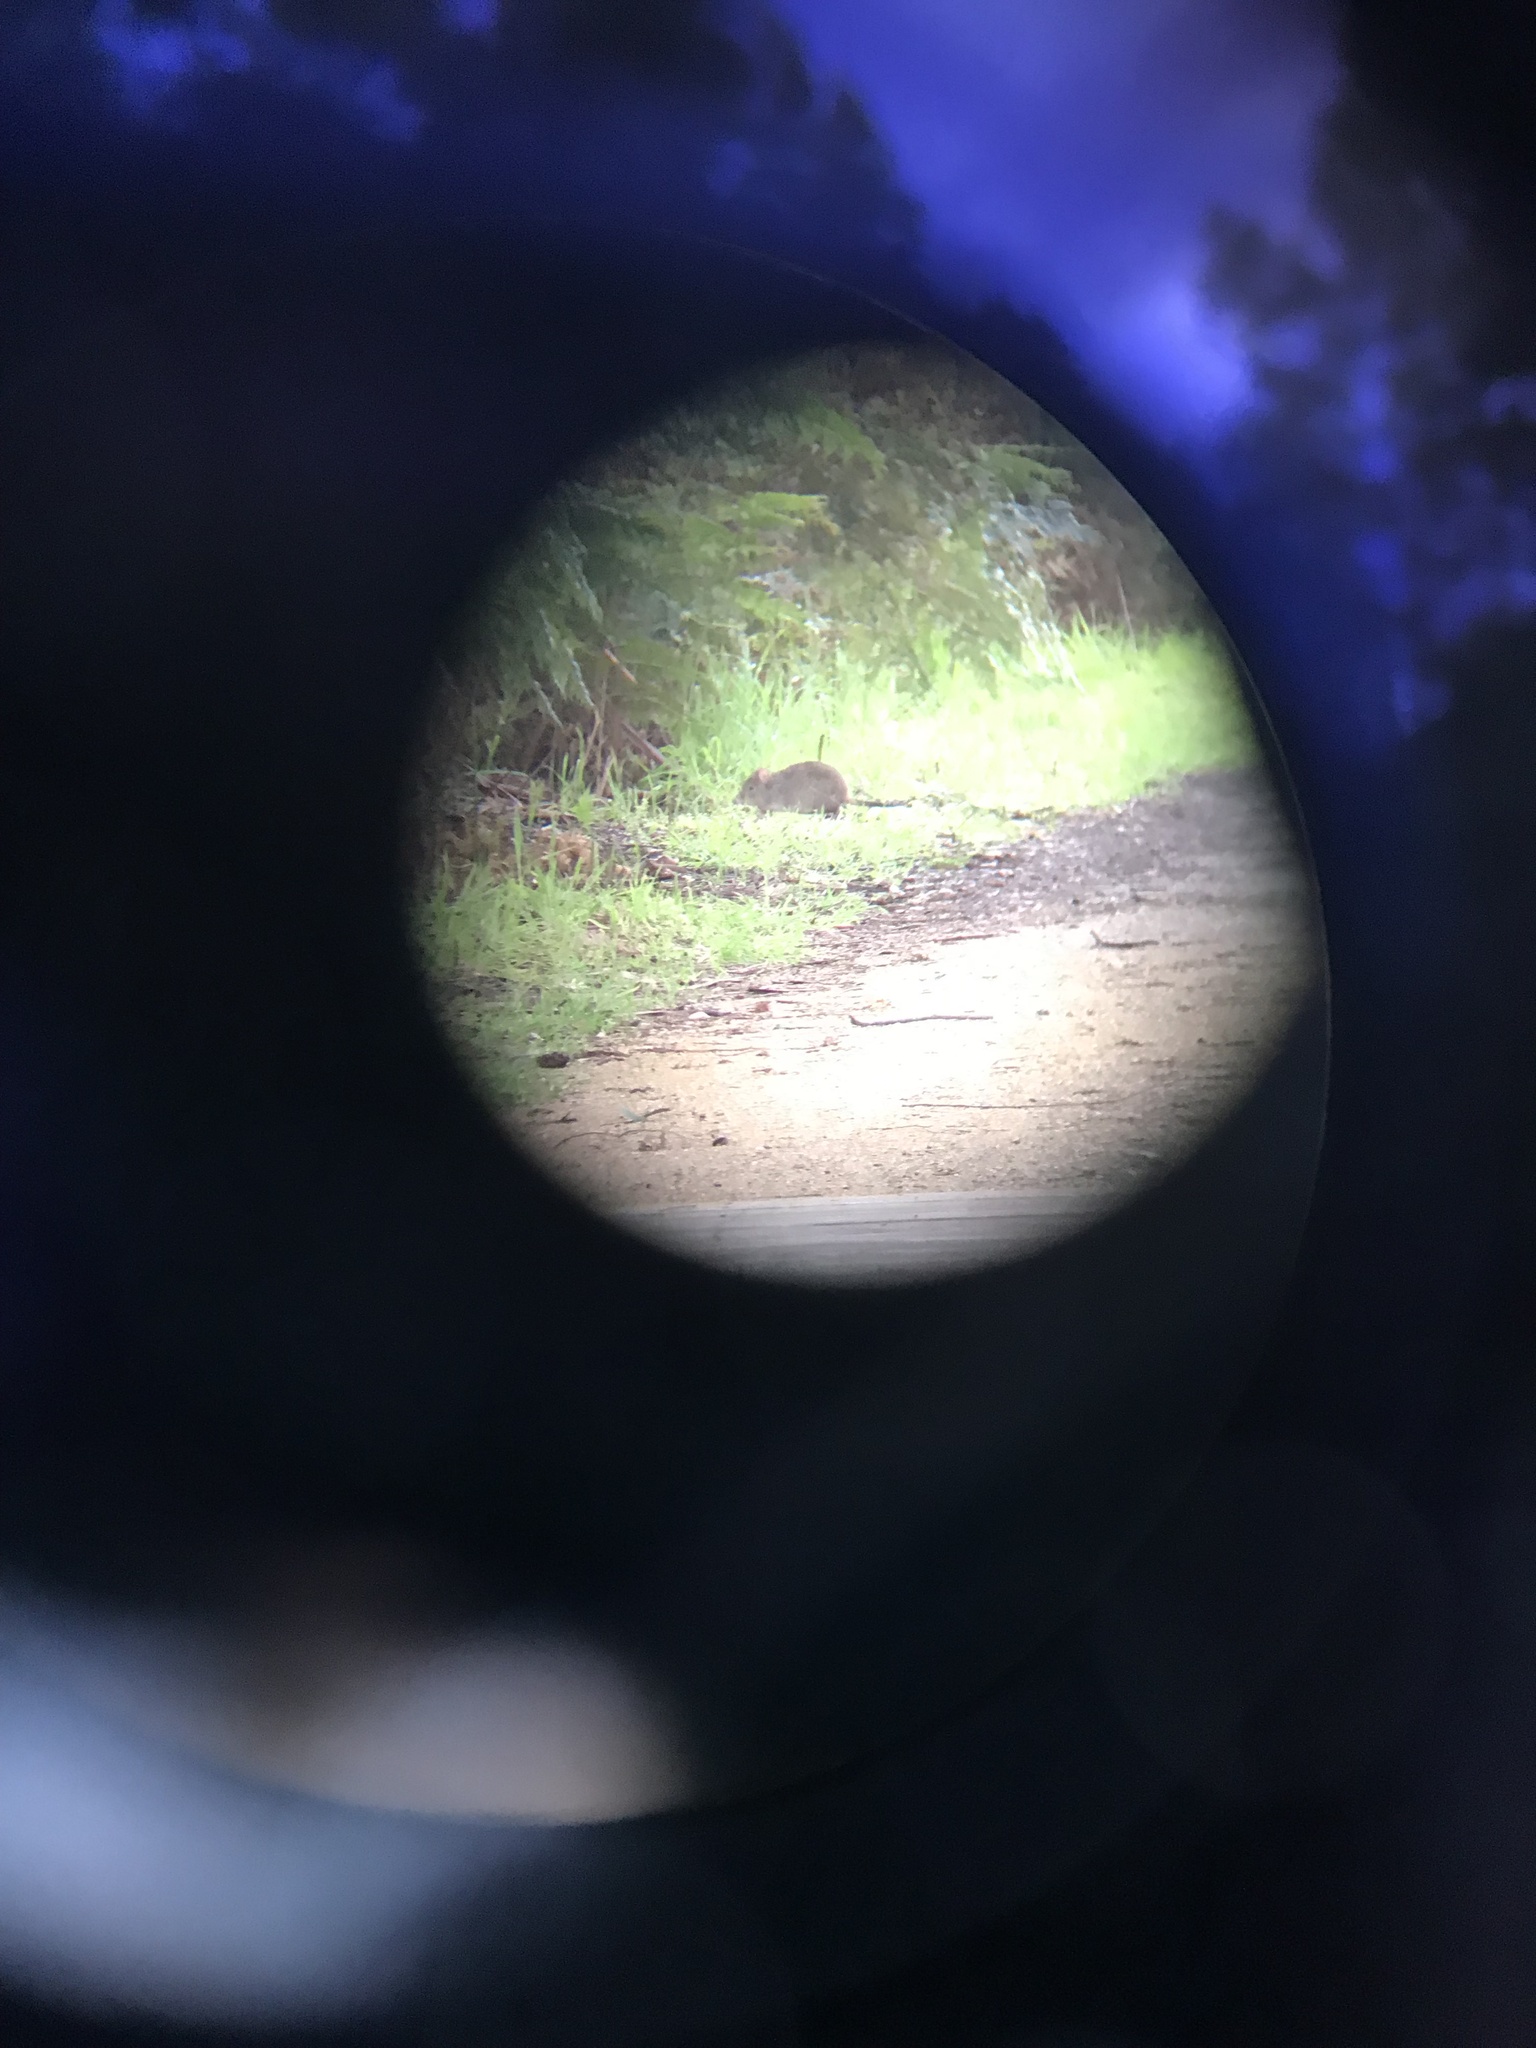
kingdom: Animalia
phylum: Chordata
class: Mammalia
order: Diprotodontia
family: Potoroidae
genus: Potorous
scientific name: Potorous tridactylus
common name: Long-nosed potoroo
